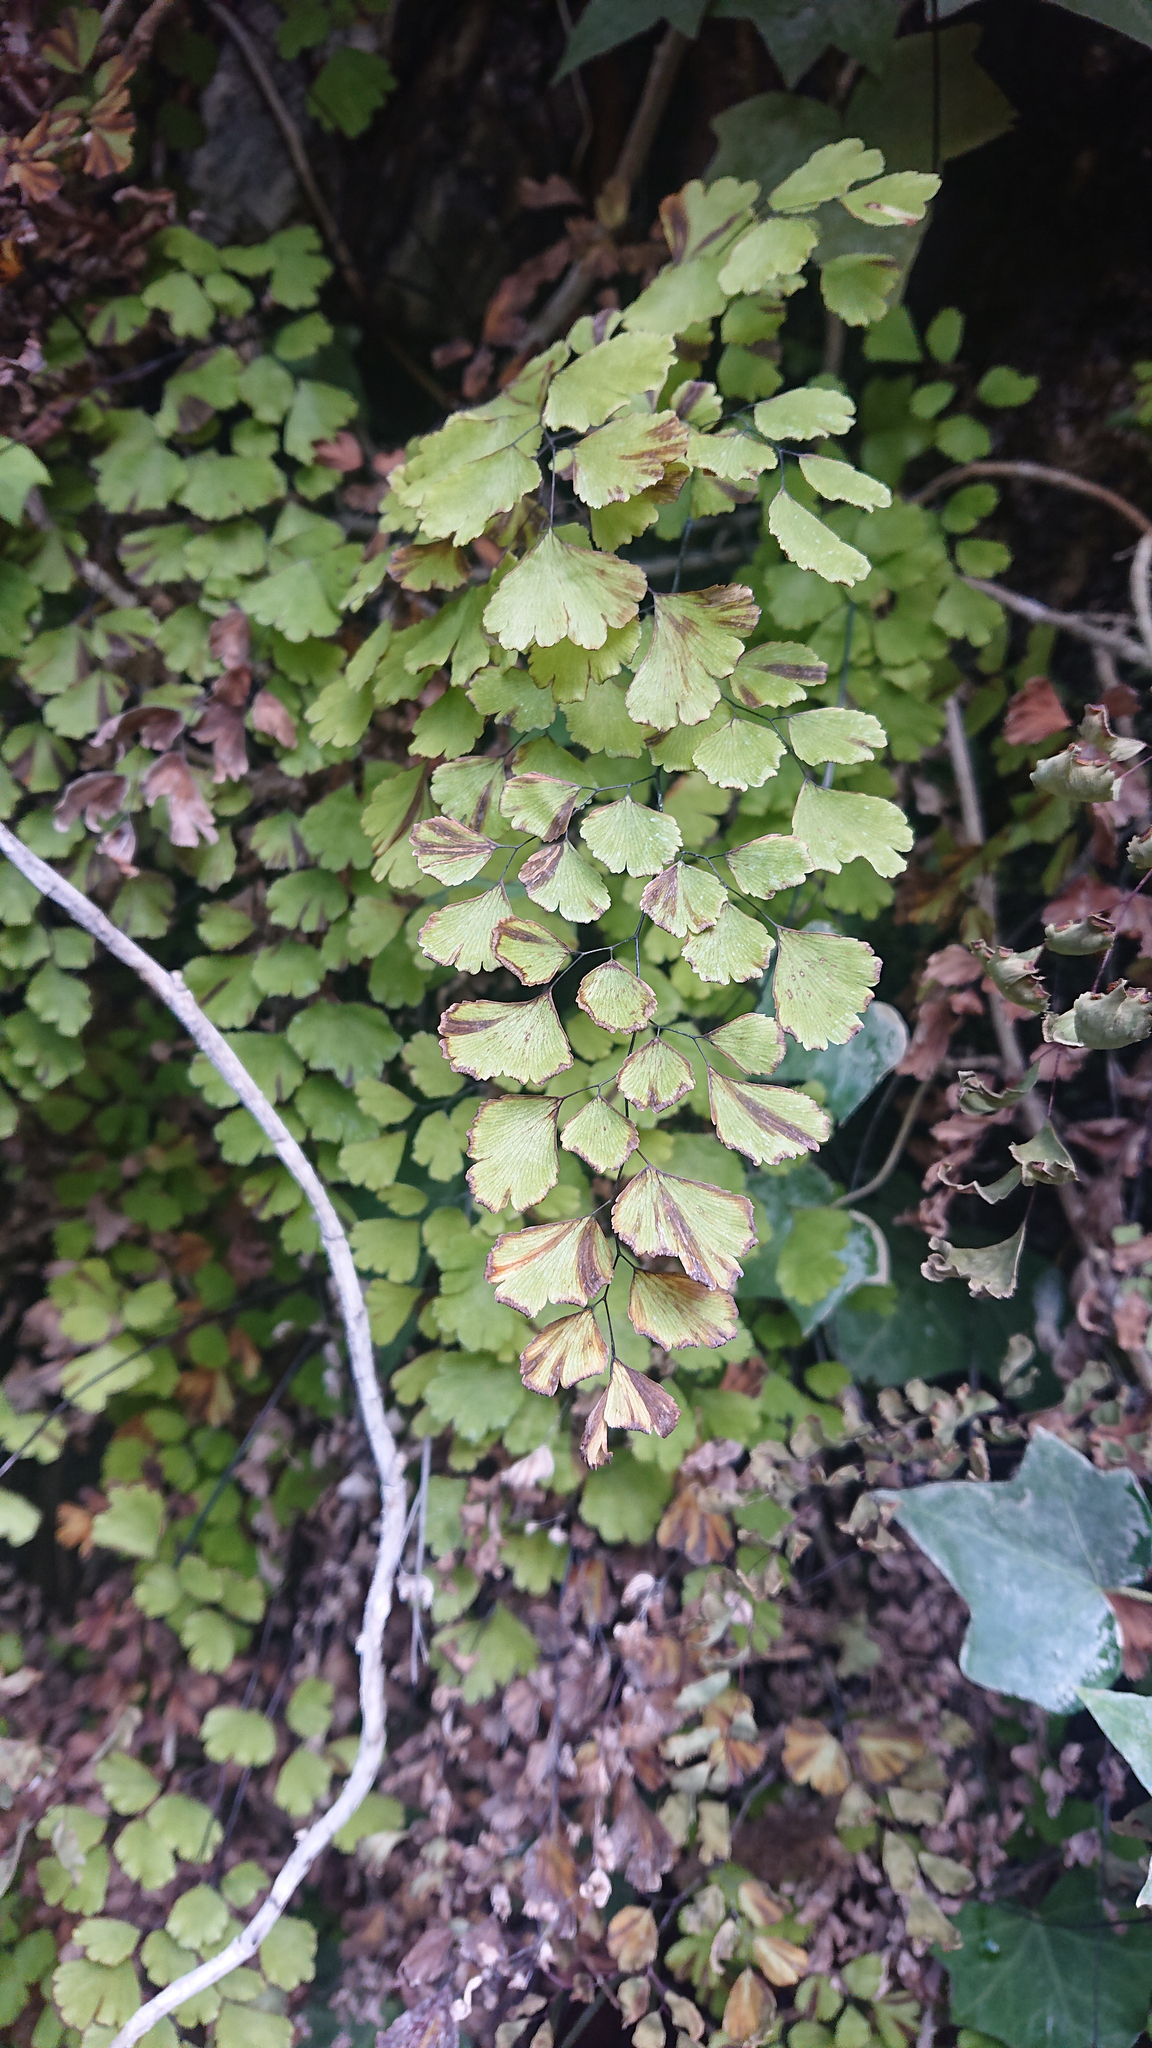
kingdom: Plantae
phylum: Tracheophyta
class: Polypodiopsida
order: Polypodiales
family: Pteridaceae
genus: Adiantum
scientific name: Adiantum capillus-veneris
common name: Maidenhair fern
